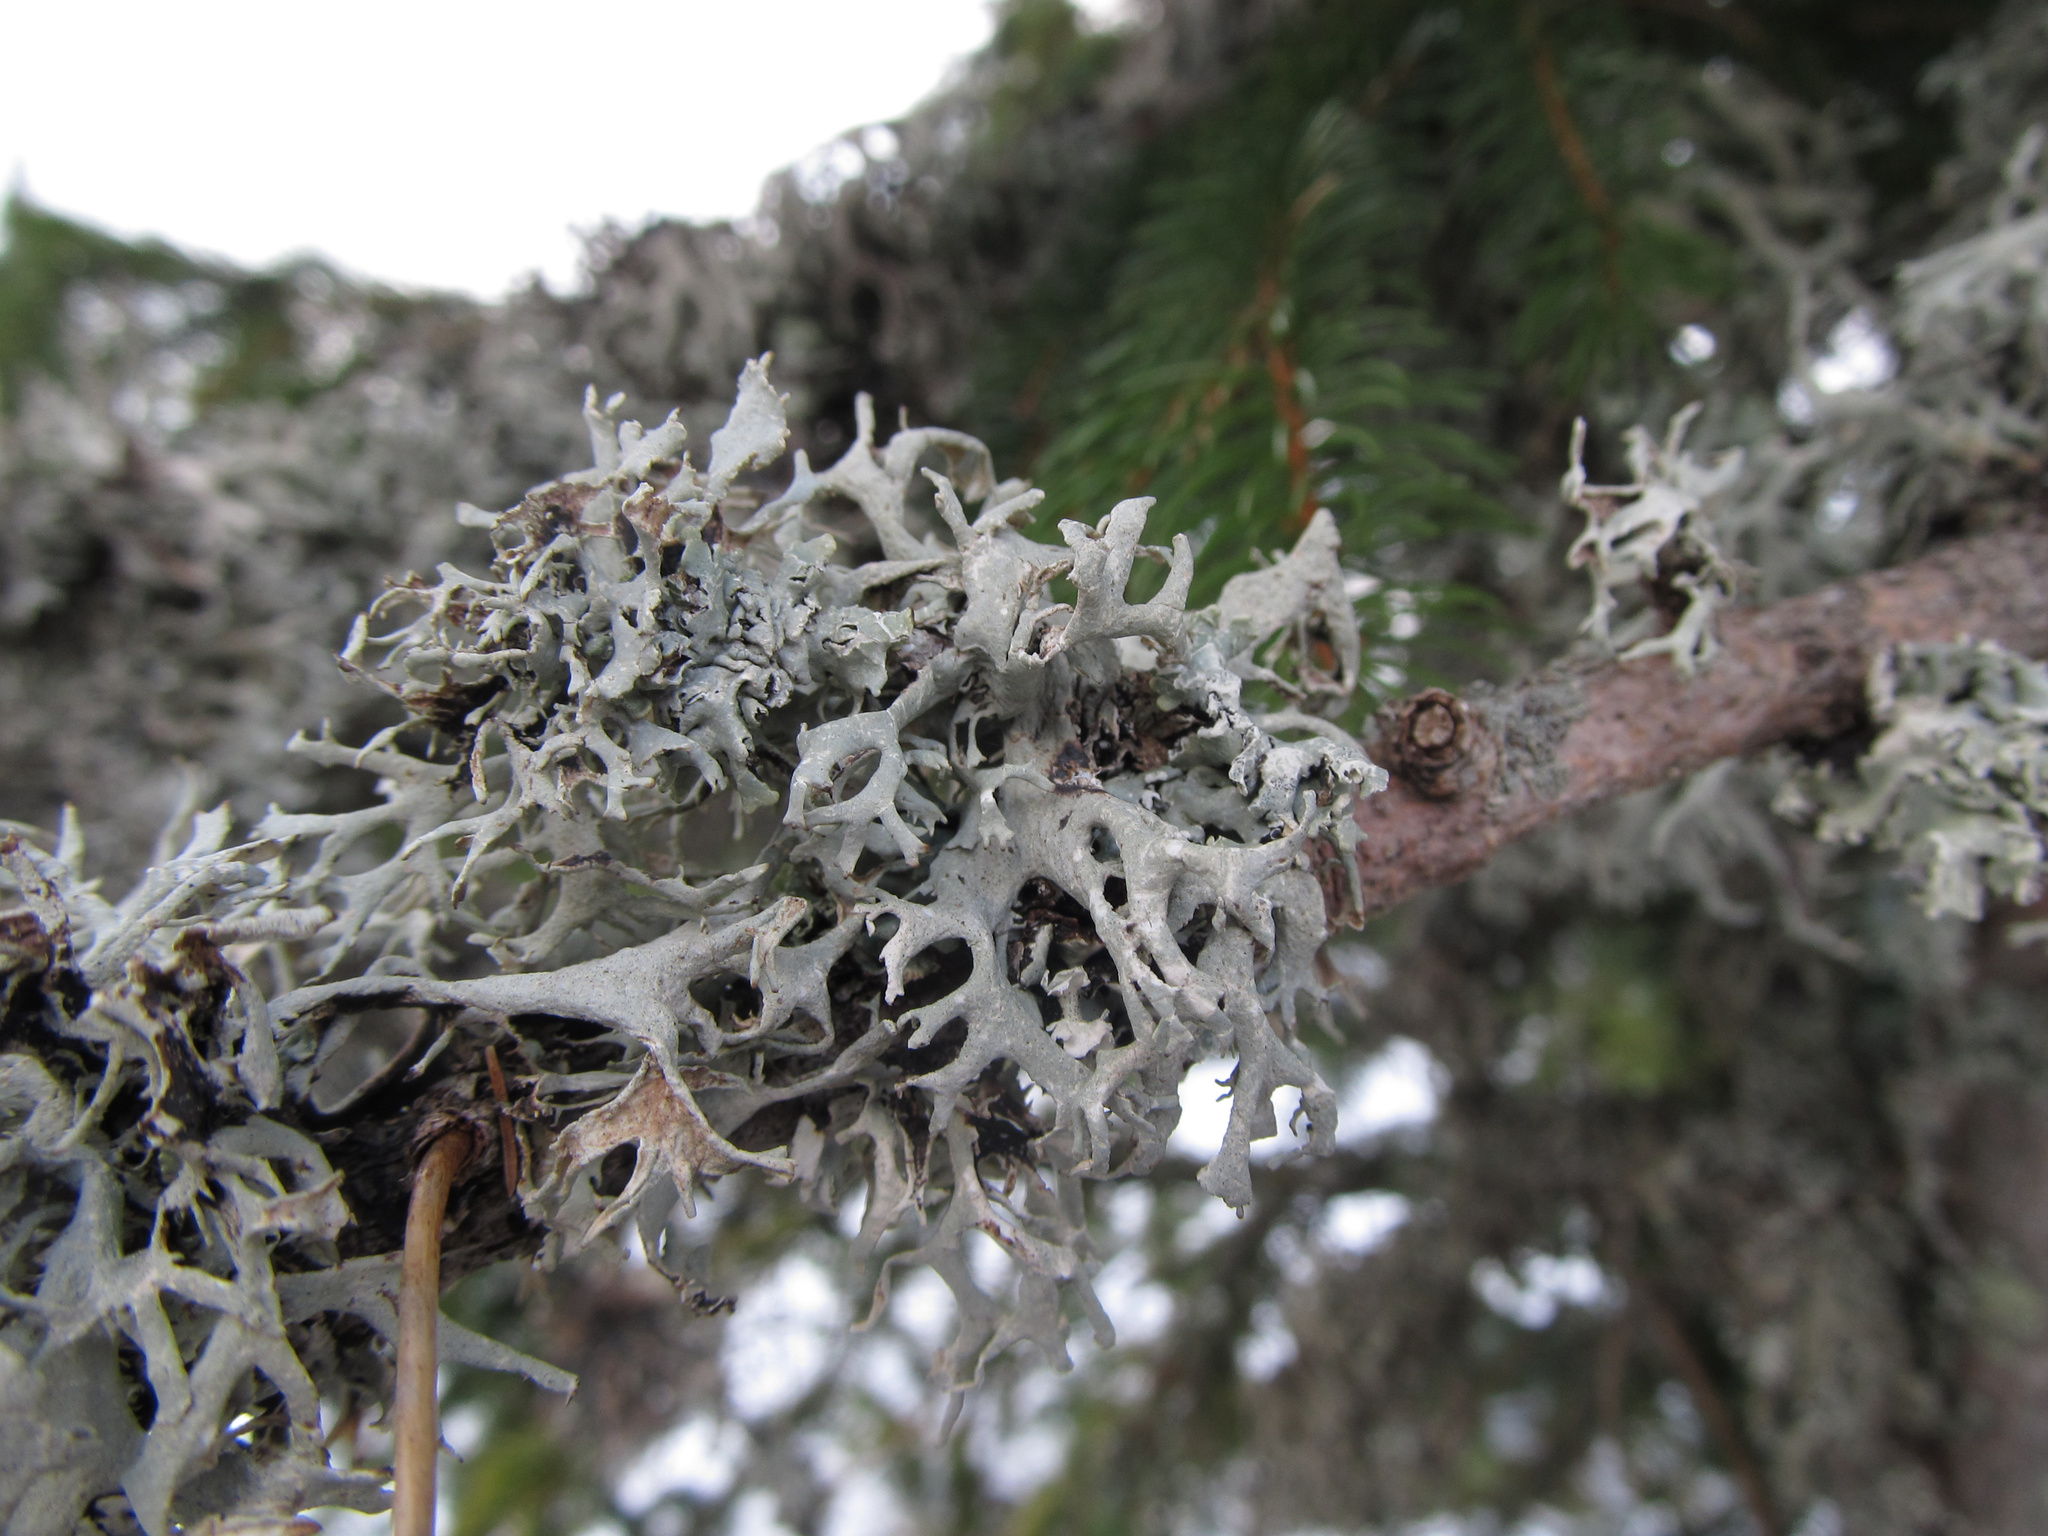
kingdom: Fungi
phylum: Ascomycota
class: Lecanoromycetes
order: Lecanorales
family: Parmeliaceae
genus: Pseudevernia
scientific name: Pseudevernia furfuracea
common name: Tree moss
